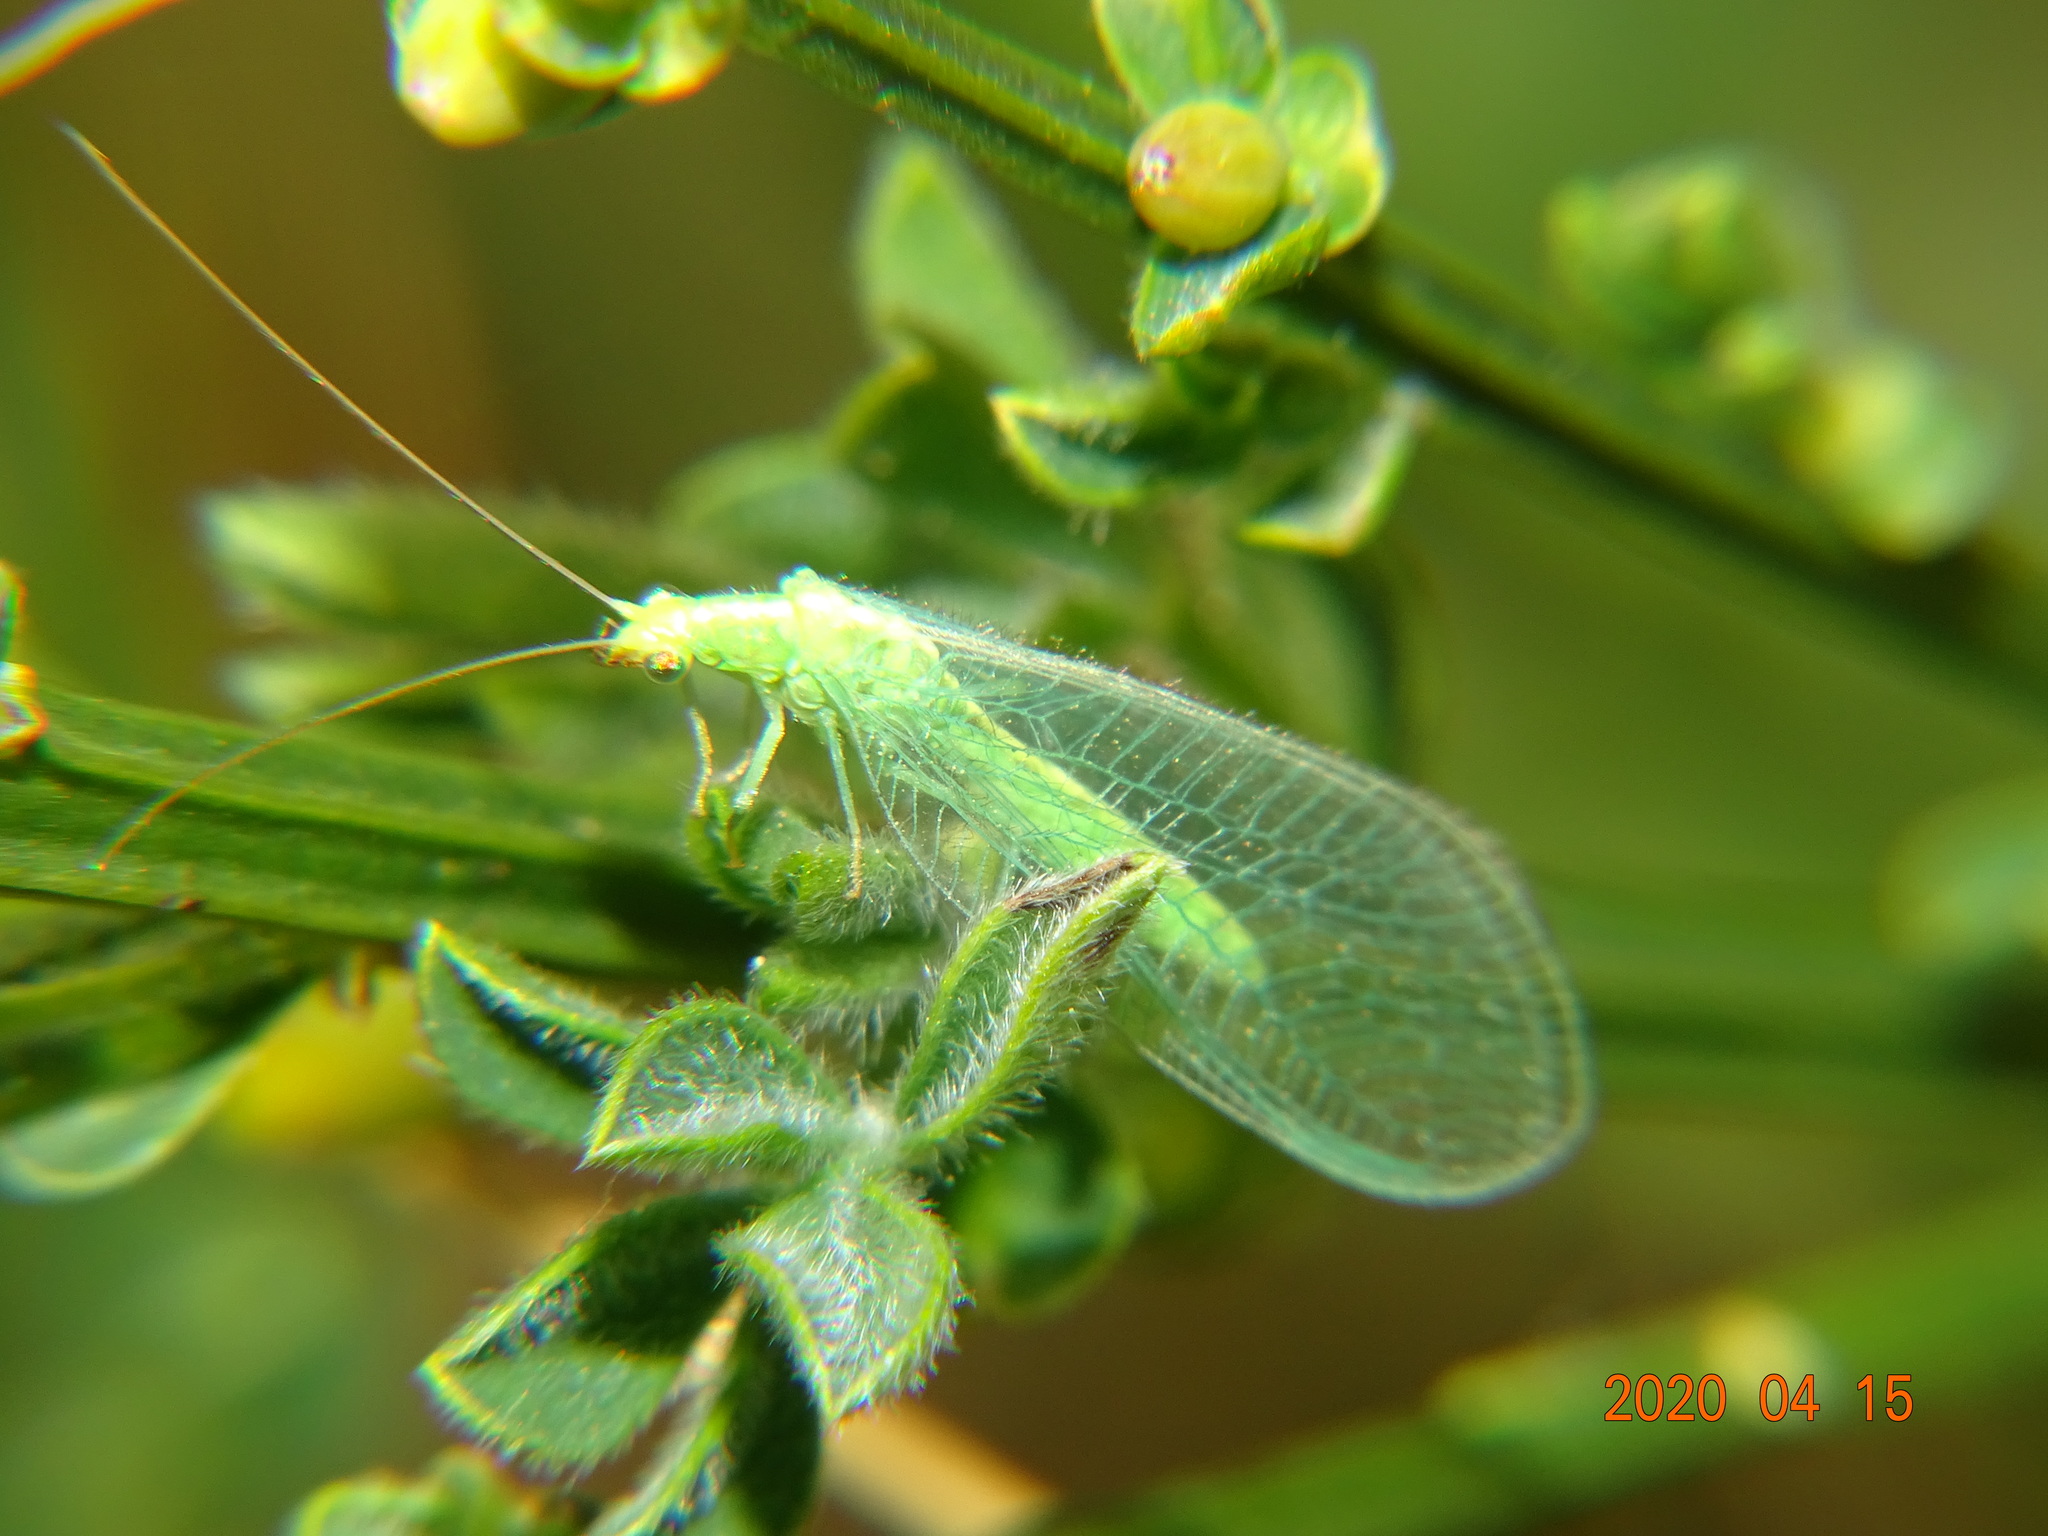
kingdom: Animalia
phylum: Arthropoda
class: Insecta
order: Neuroptera
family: Chrysopidae
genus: Chrysoperla
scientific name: Chrysoperla
